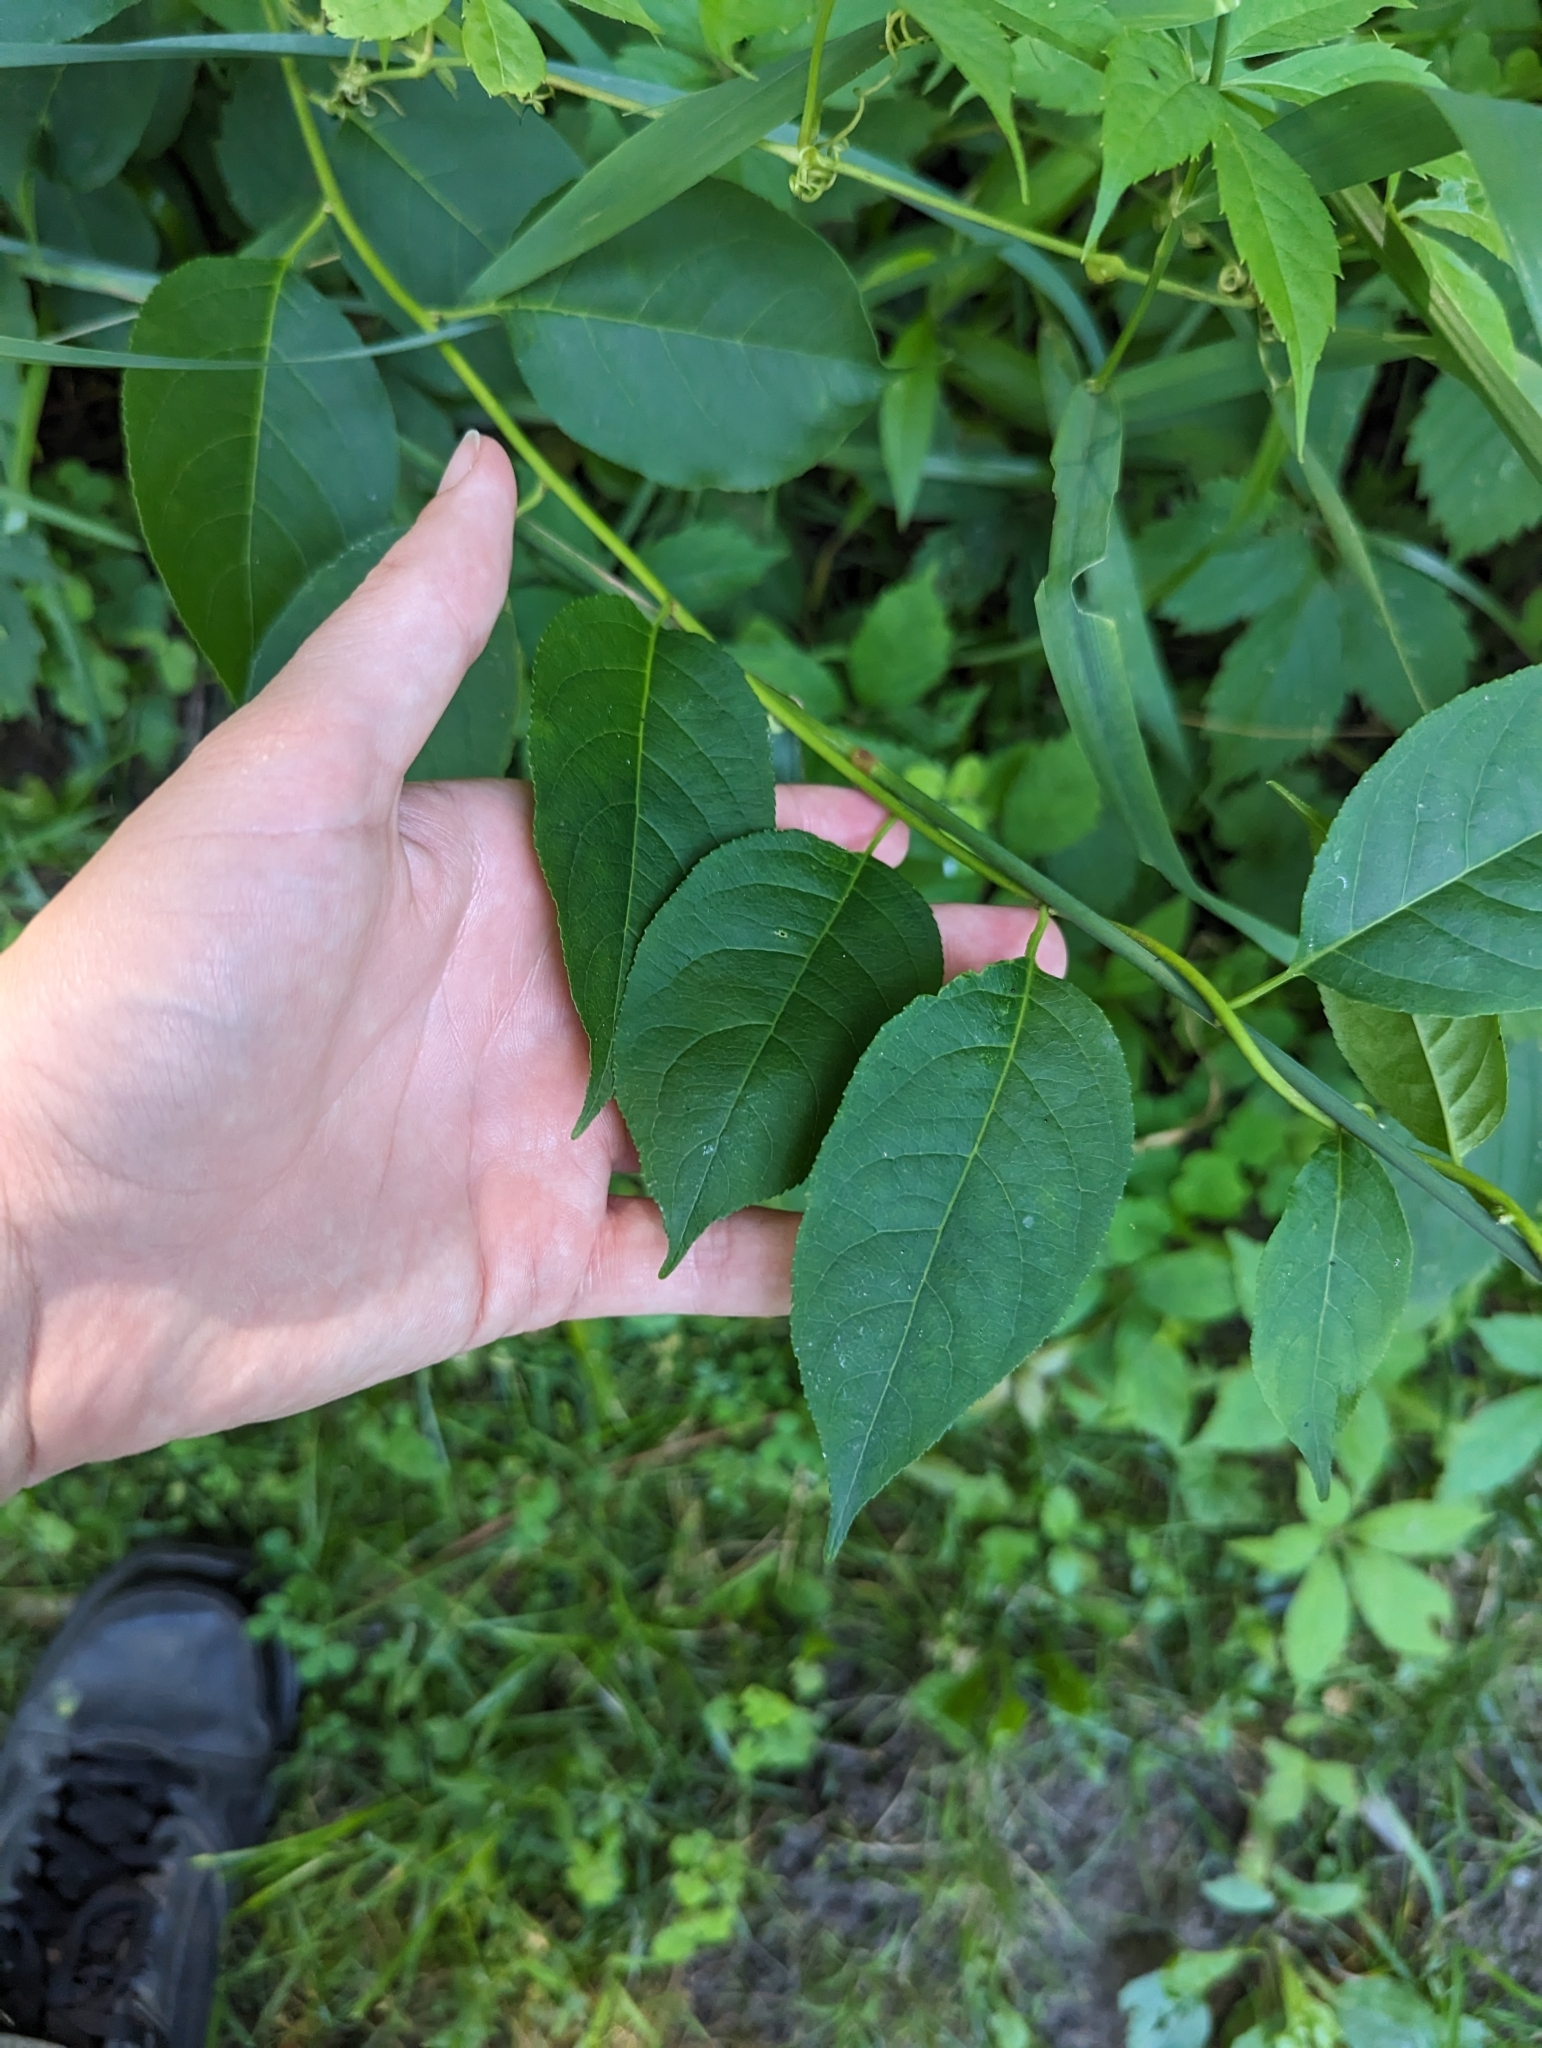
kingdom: Plantae
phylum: Tracheophyta
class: Magnoliopsida
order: Celastrales
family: Celastraceae
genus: Celastrus
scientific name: Celastrus scandens
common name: American bittersweet
